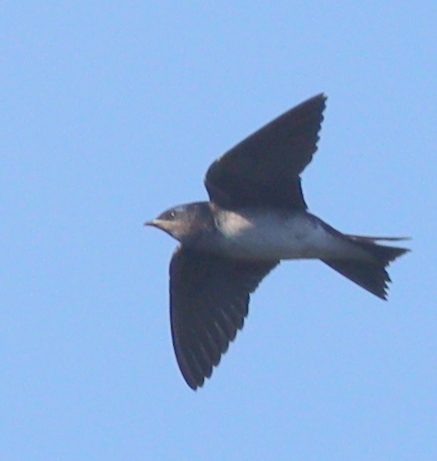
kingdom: Animalia
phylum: Chordata
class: Aves
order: Passeriformes
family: Hirundinidae
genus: Progne
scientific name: Progne chalybea
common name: Grey-breasted martin
